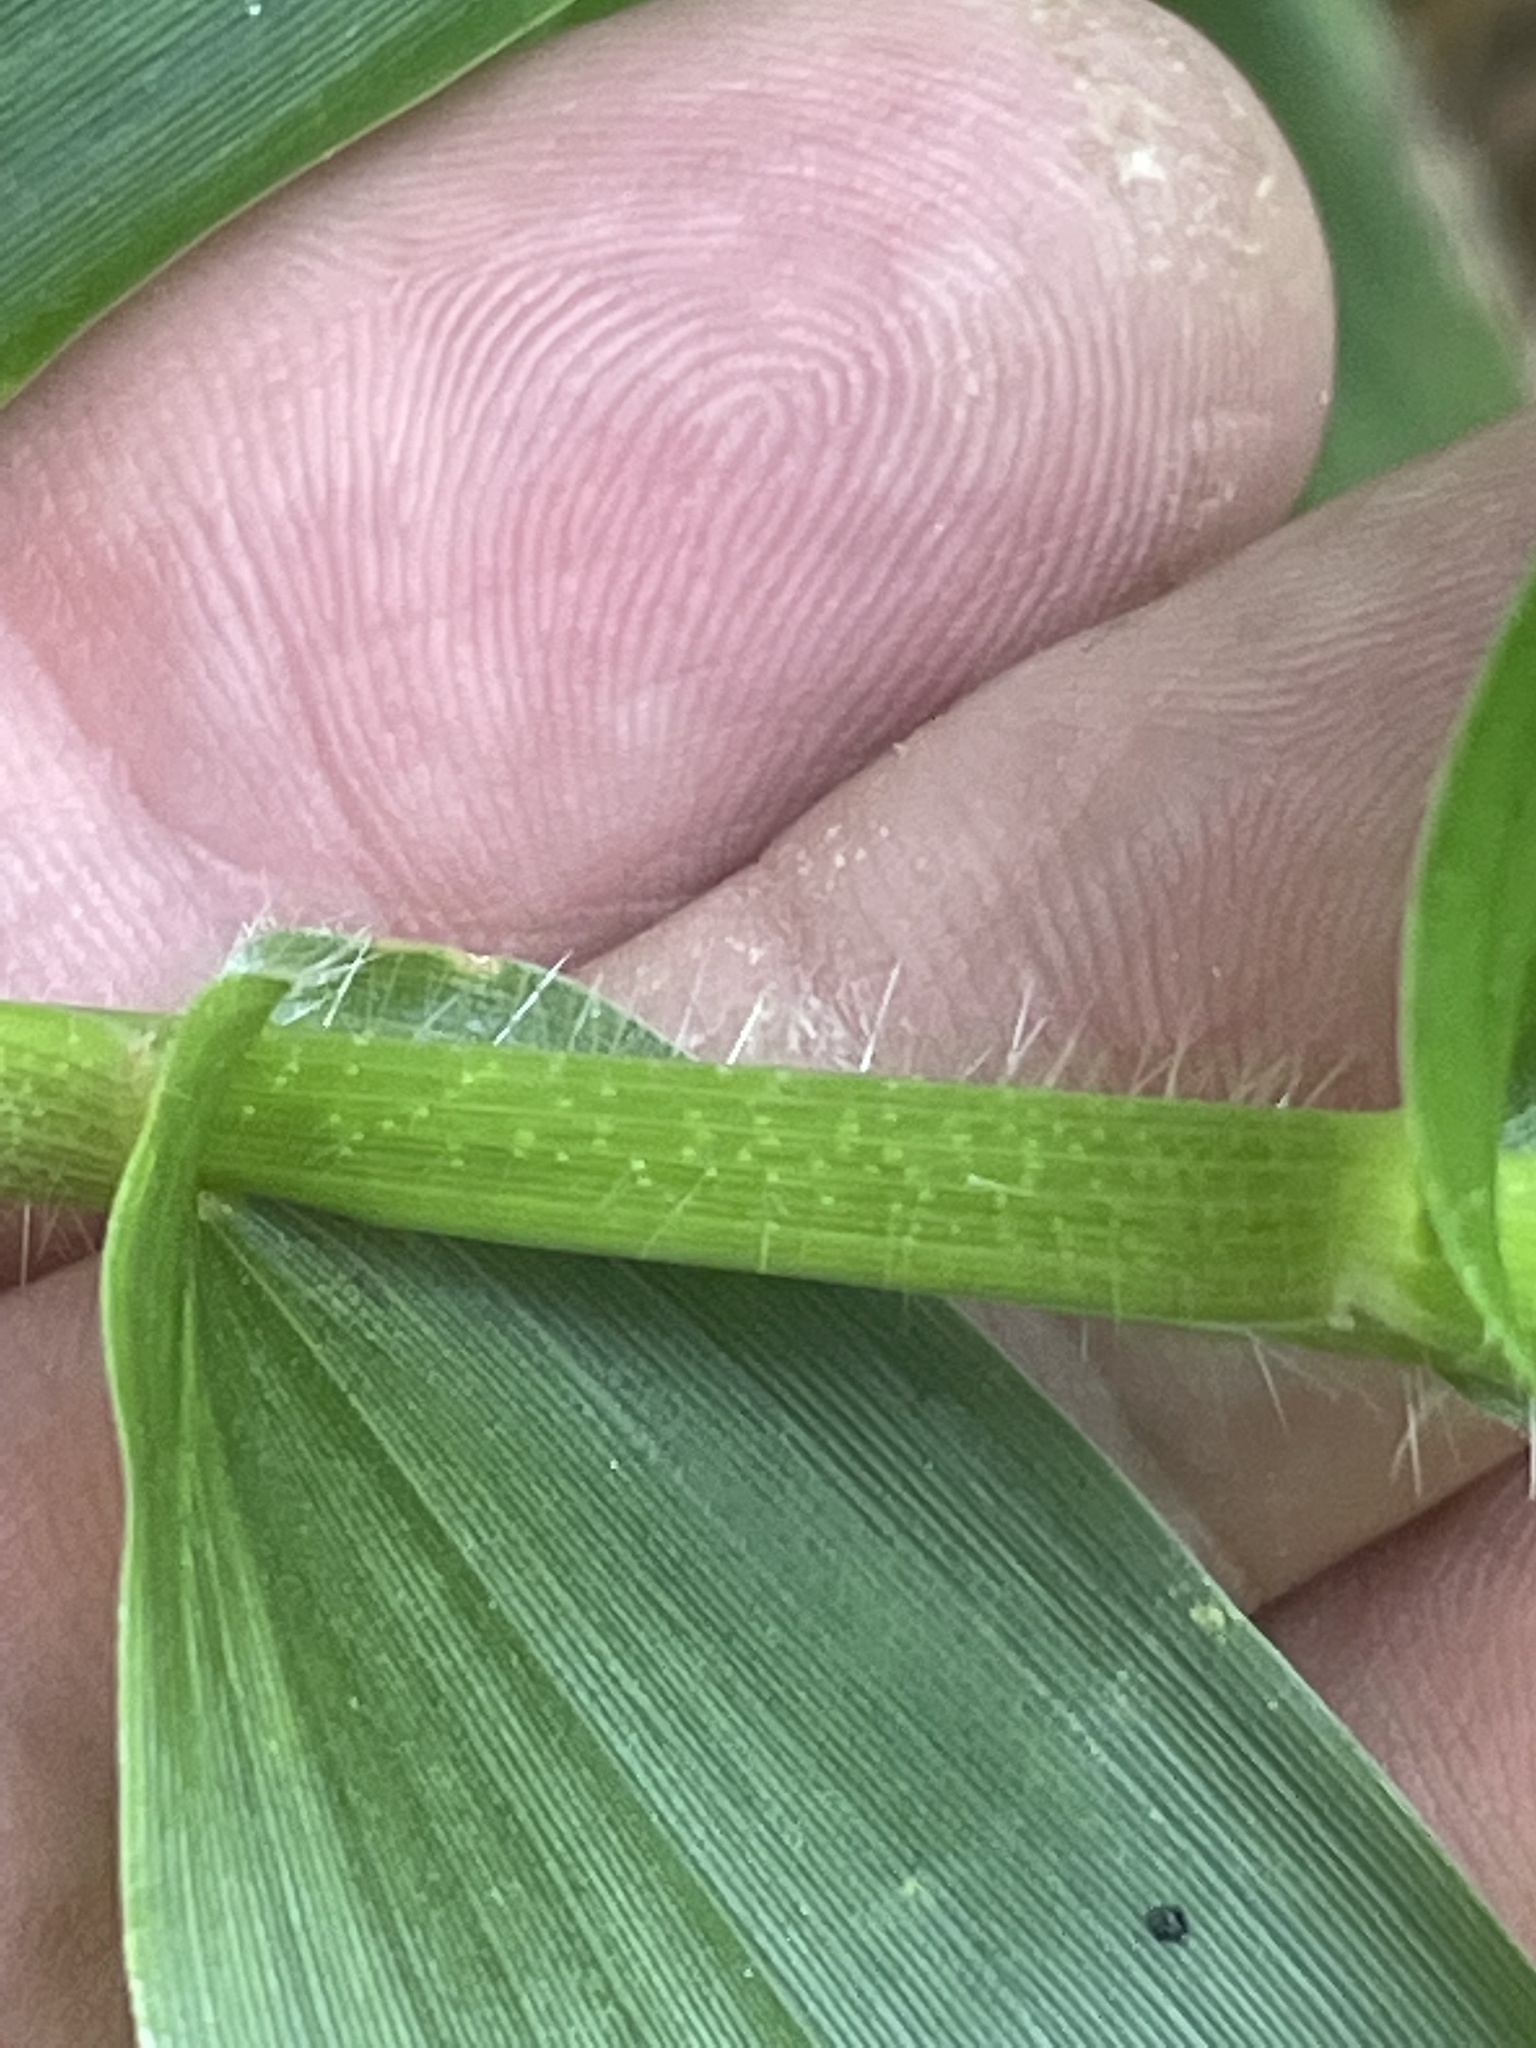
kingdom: Plantae
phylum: Tracheophyta
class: Liliopsida
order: Poales
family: Poaceae
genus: Dichanthelium
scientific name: Dichanthelium clandestinum
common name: Deer-tongue grass
